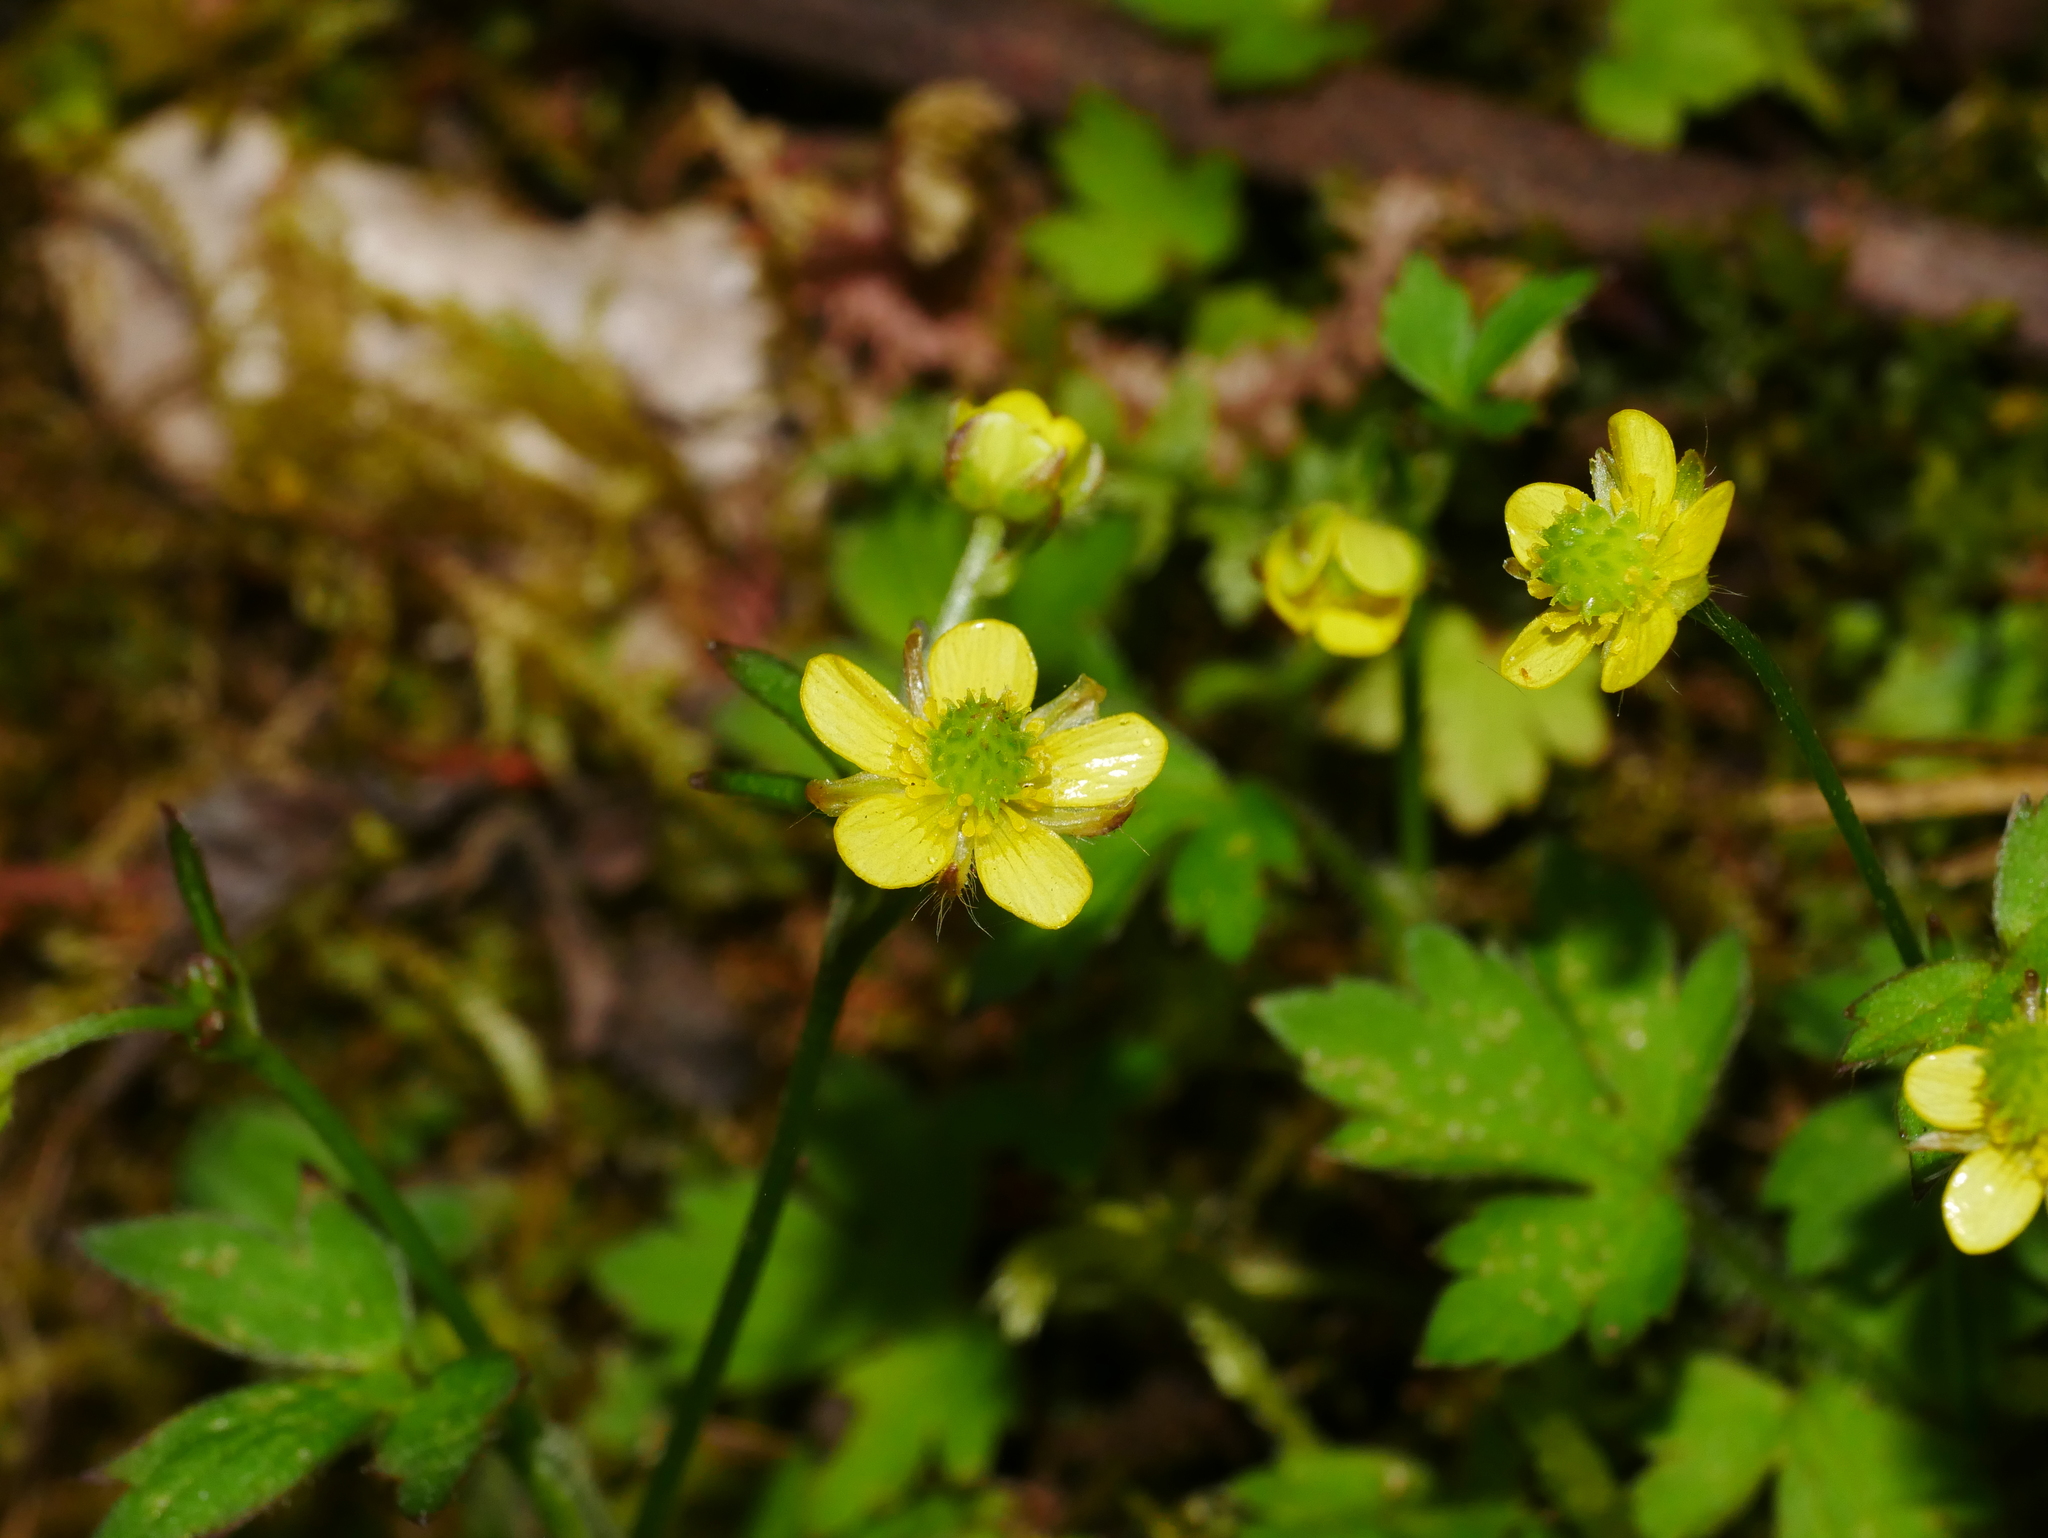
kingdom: Plantae
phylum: Tracheophyta
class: Magnoliopsida
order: Ranunculales
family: Ranunculaceae
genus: Ranunculus
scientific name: Ranunculus taisanensis
